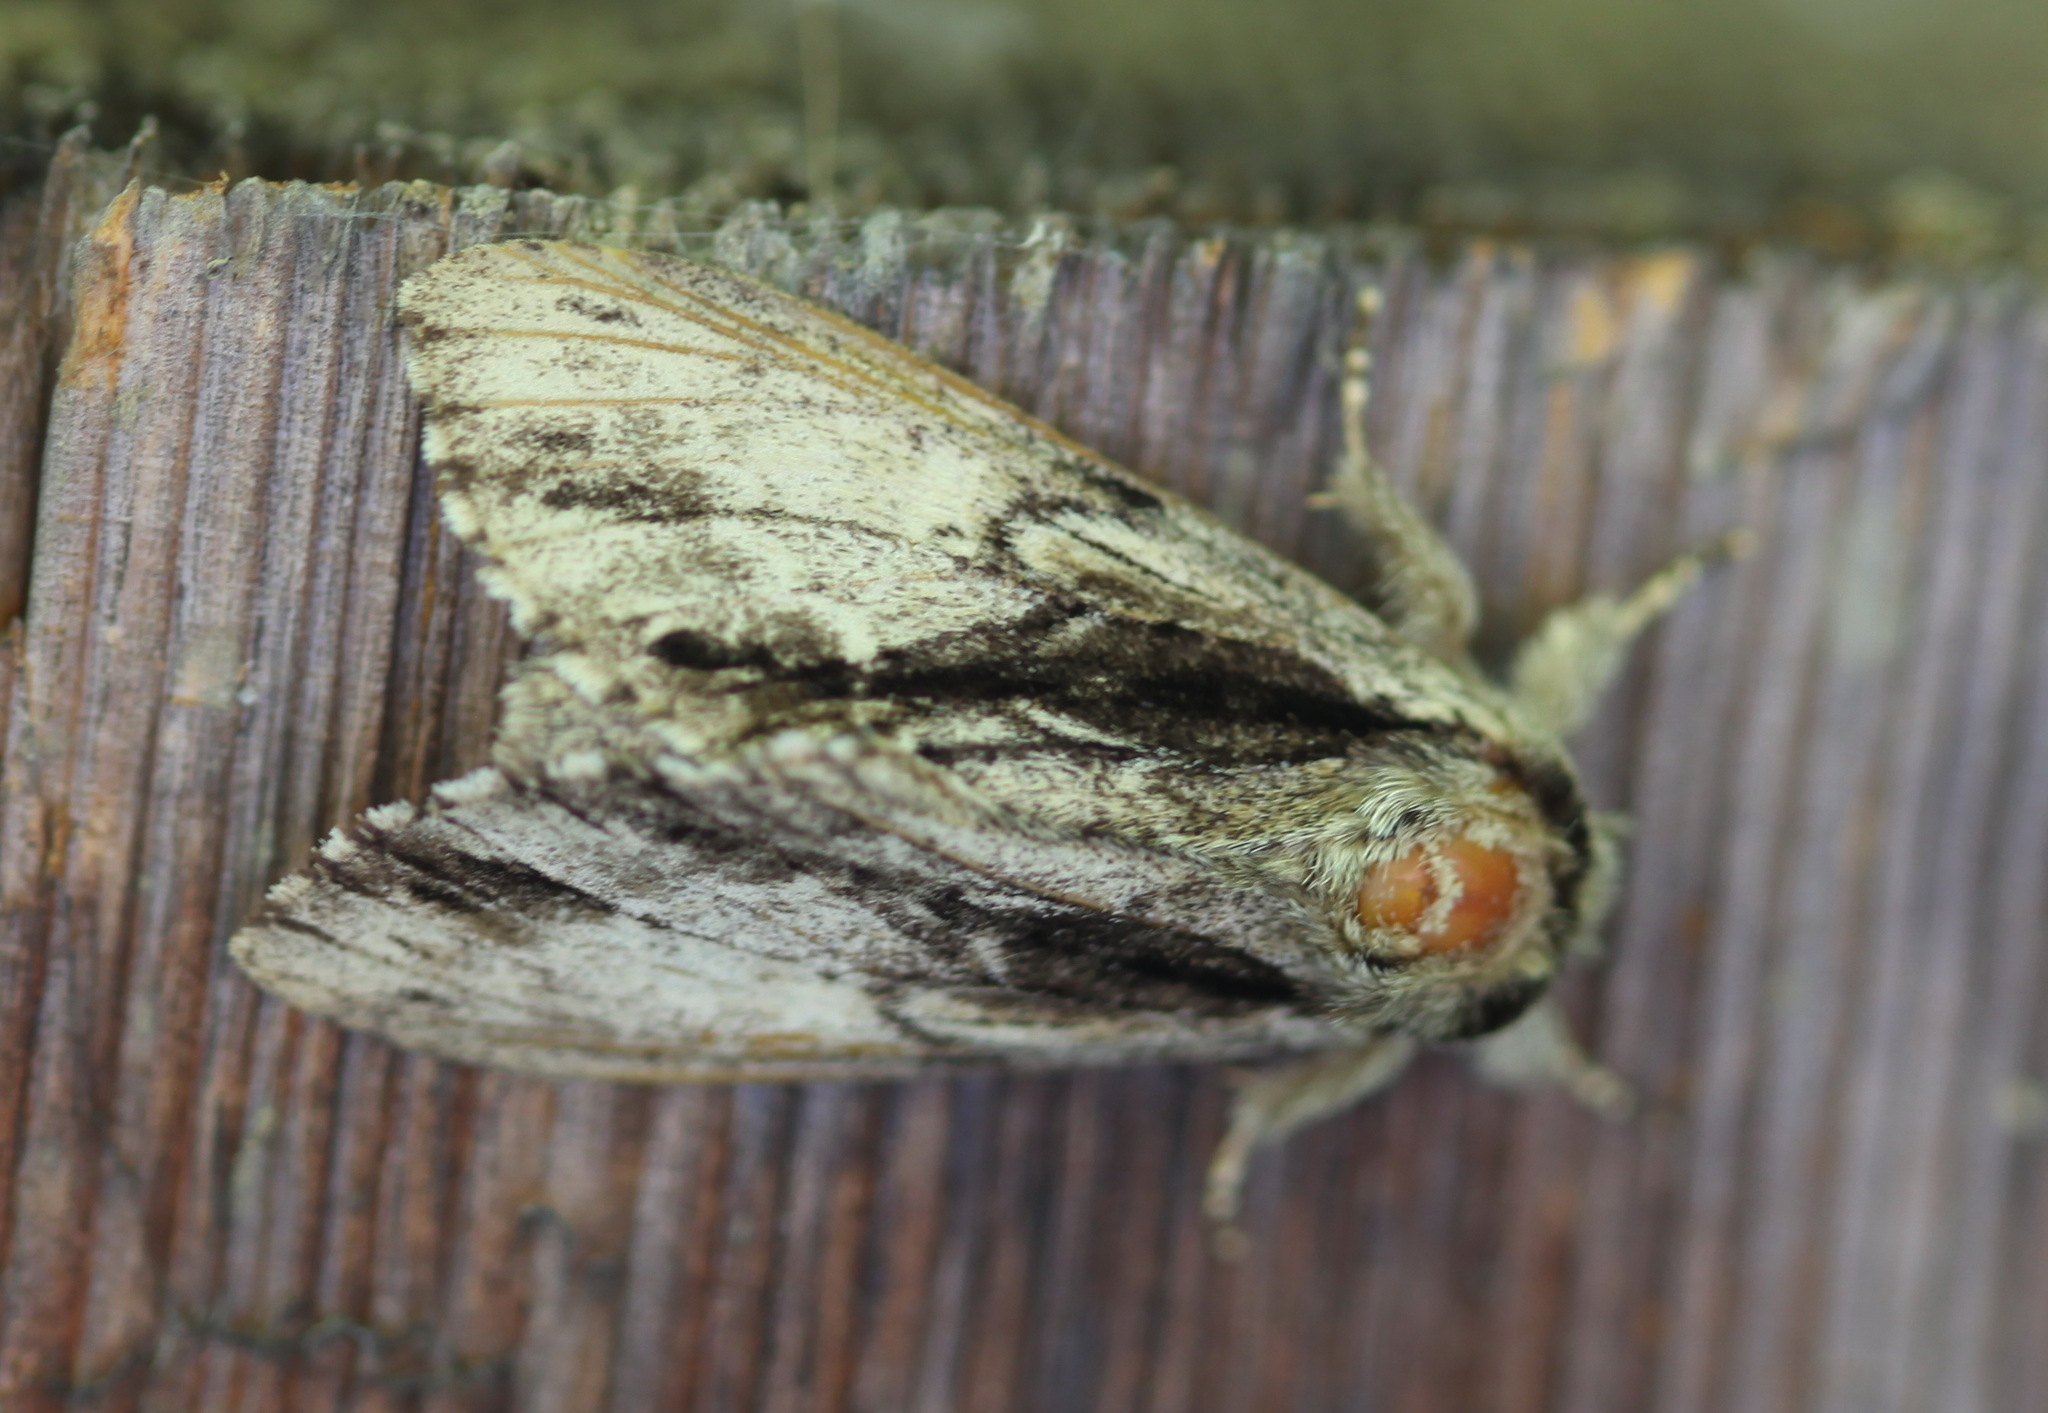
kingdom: Animalia
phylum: Arthropoda
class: Insecta
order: Lepidoptera
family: Notodontidae
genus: Shaka
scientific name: Shaka atrovittatus
